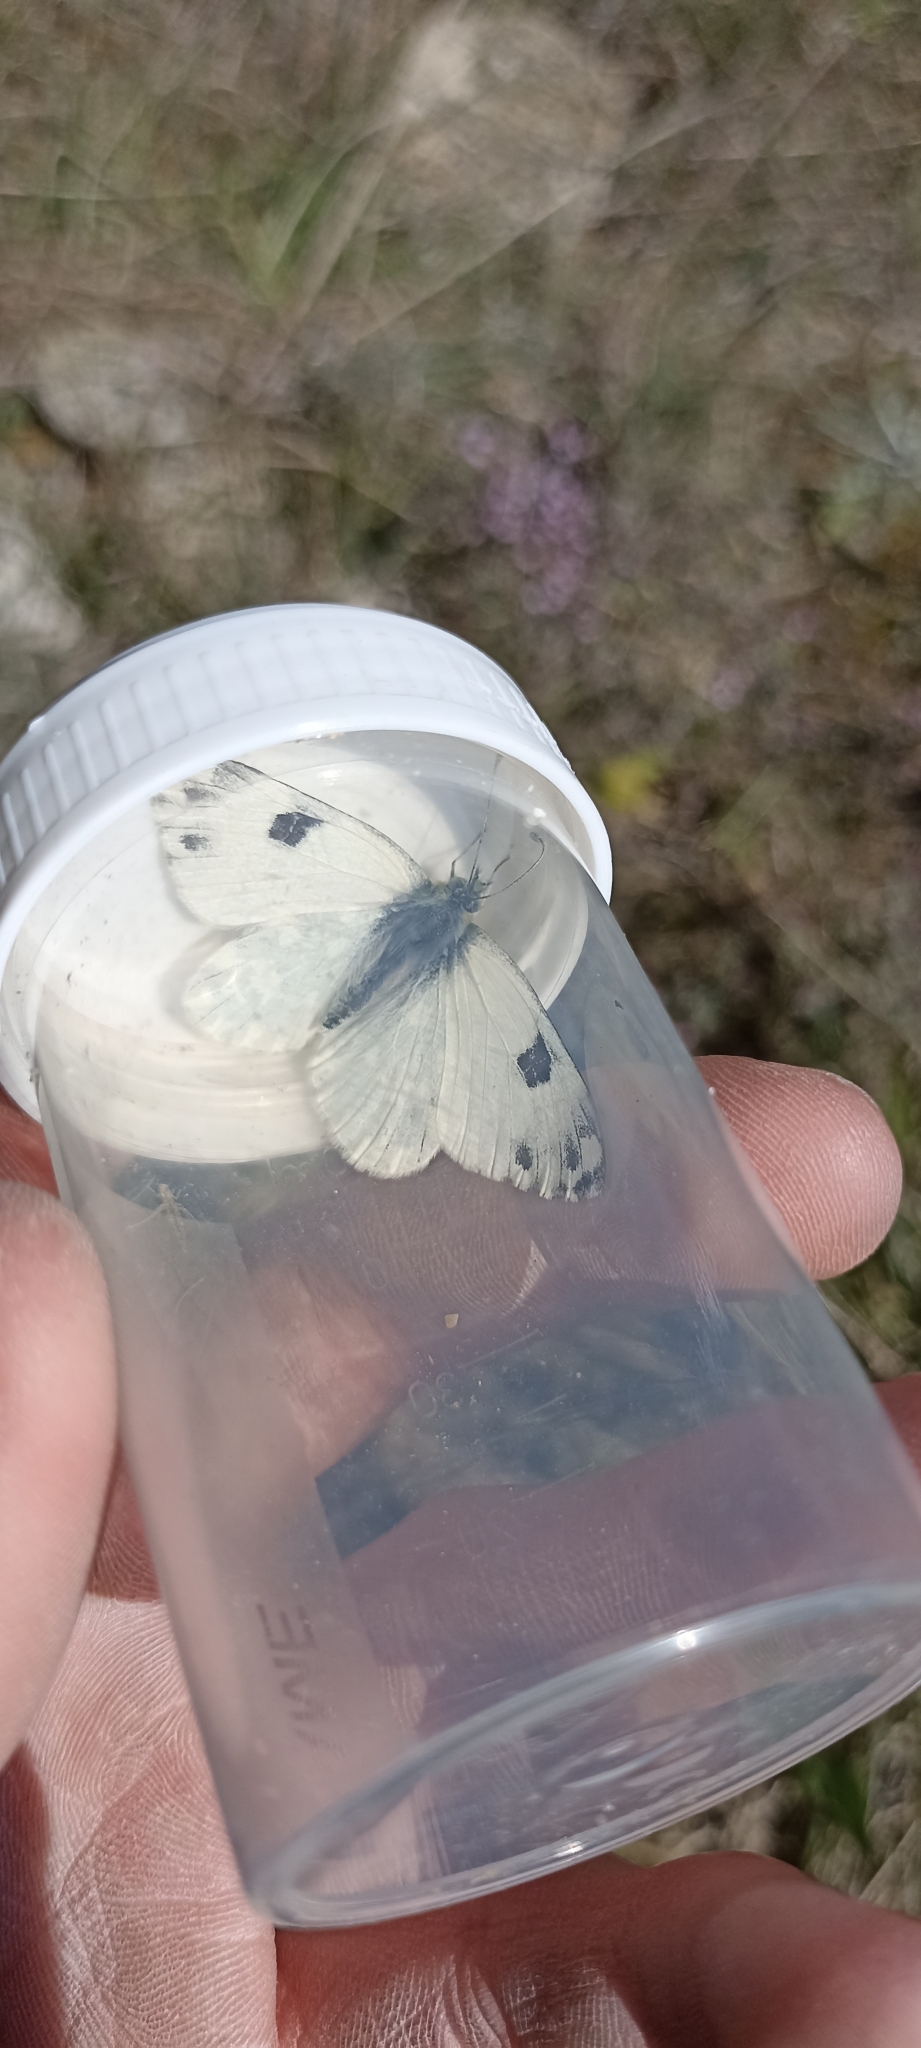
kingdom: Animalia
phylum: Arthropoda
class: Insecta
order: Lepidoptera
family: Pieridae
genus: Pontia
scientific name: Pontia daplidice
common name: Bath white
